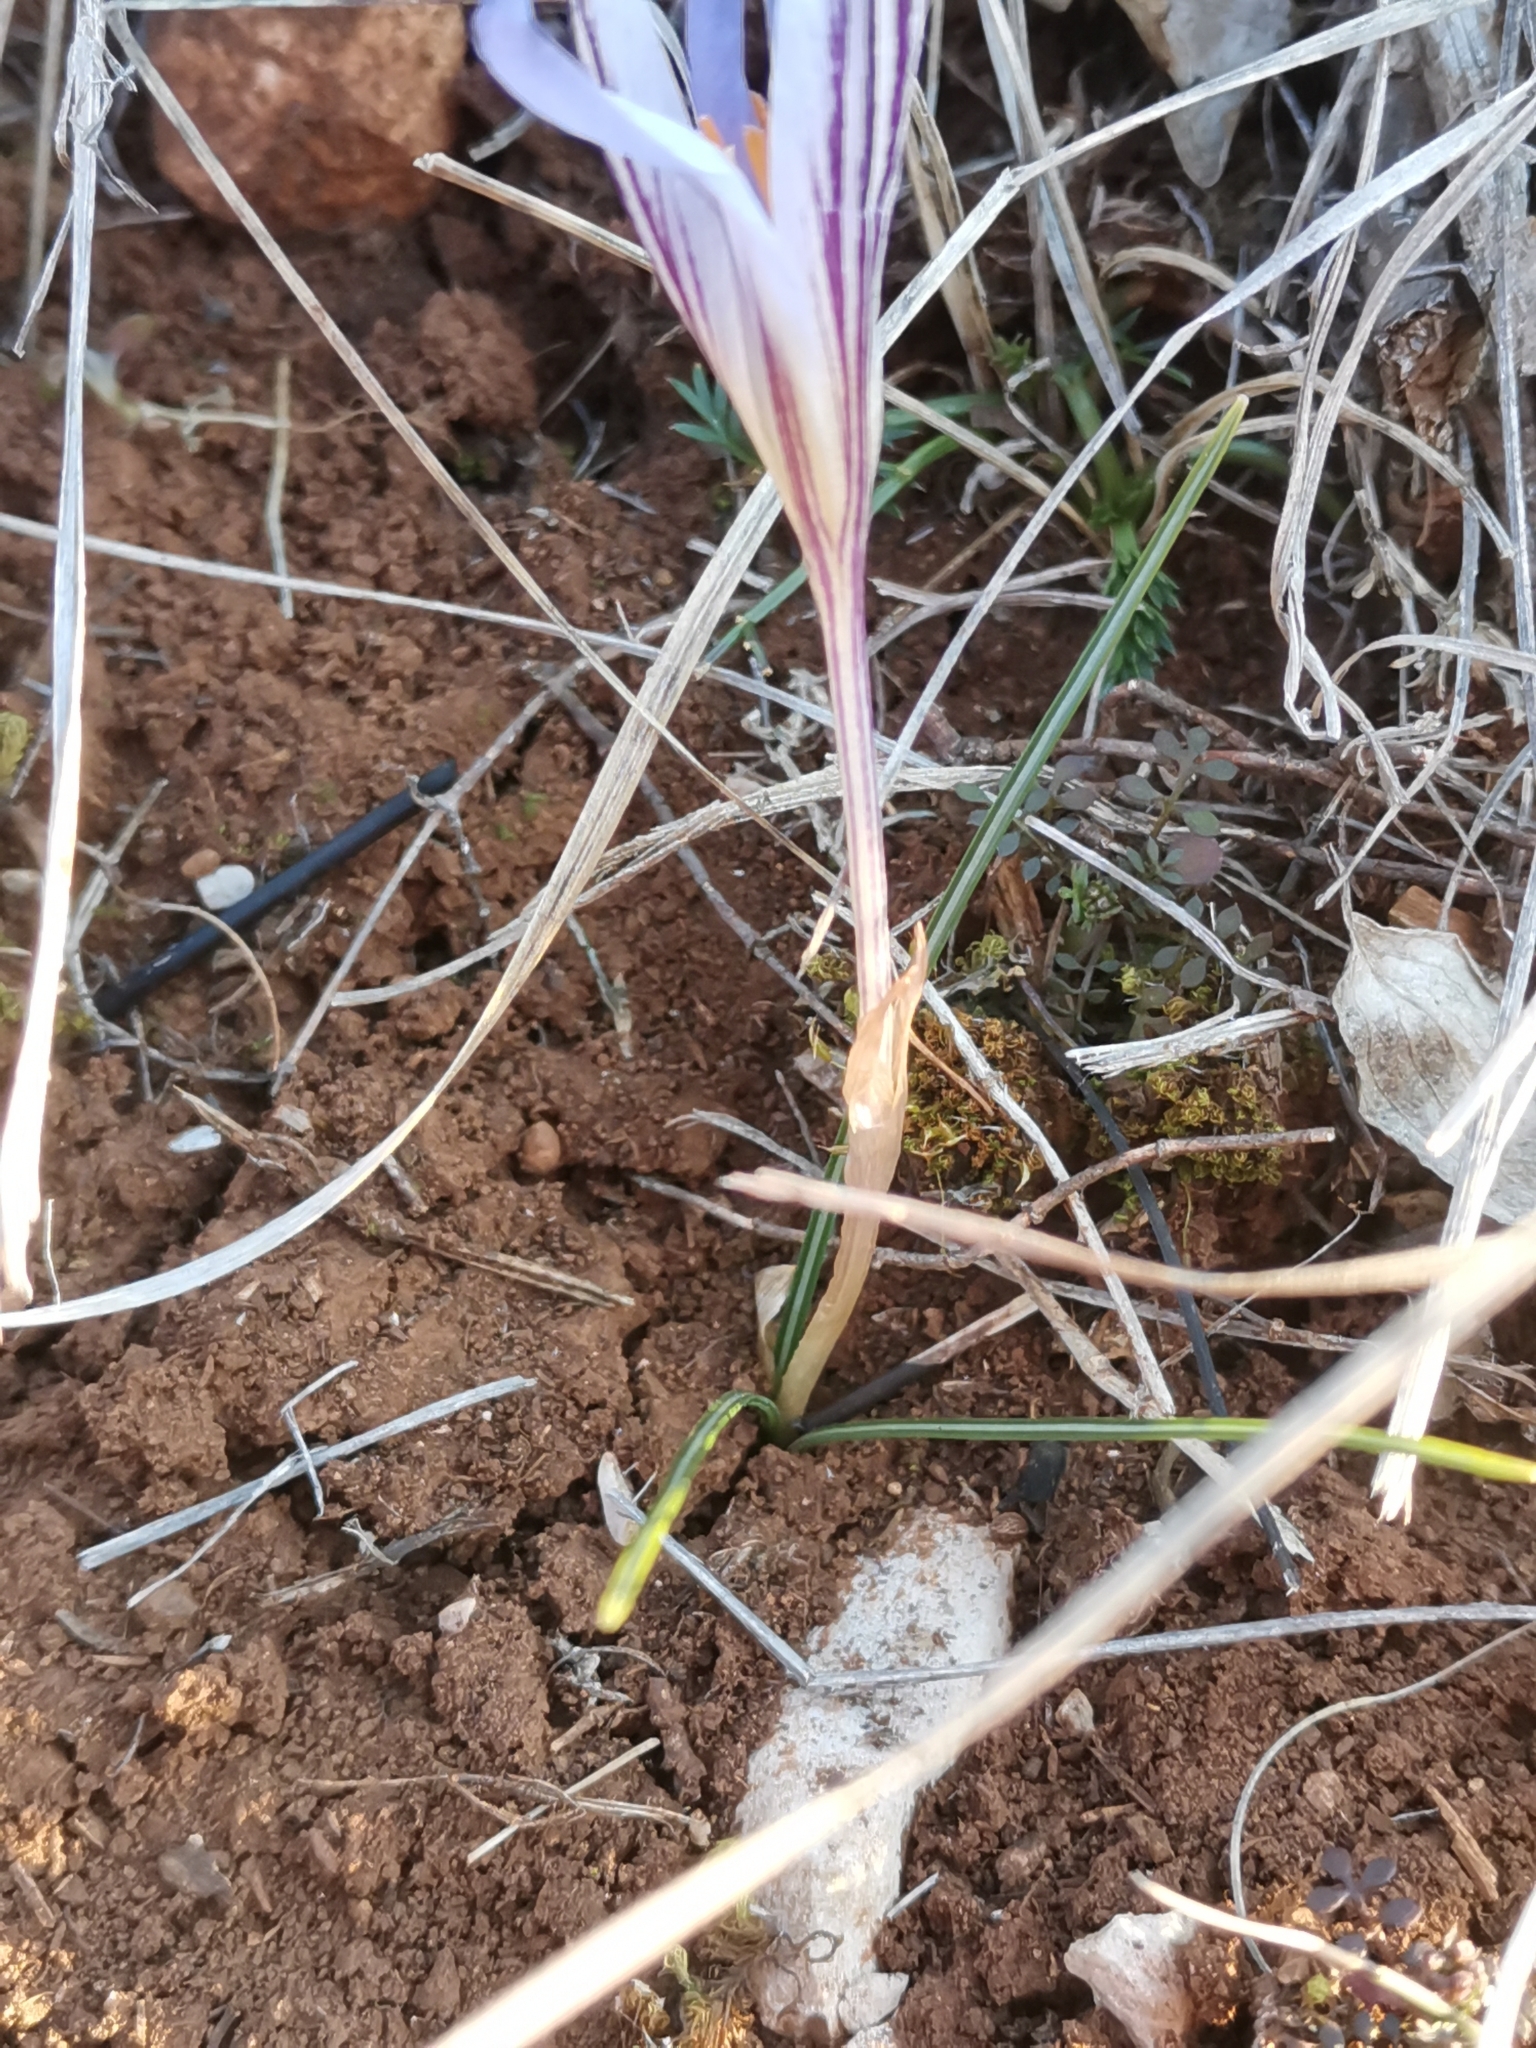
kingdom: Plantae
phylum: Tracheophyta
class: Liliopsida
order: Asparagales
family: Iridaceae
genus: Crocus
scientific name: Crocus variegatus
